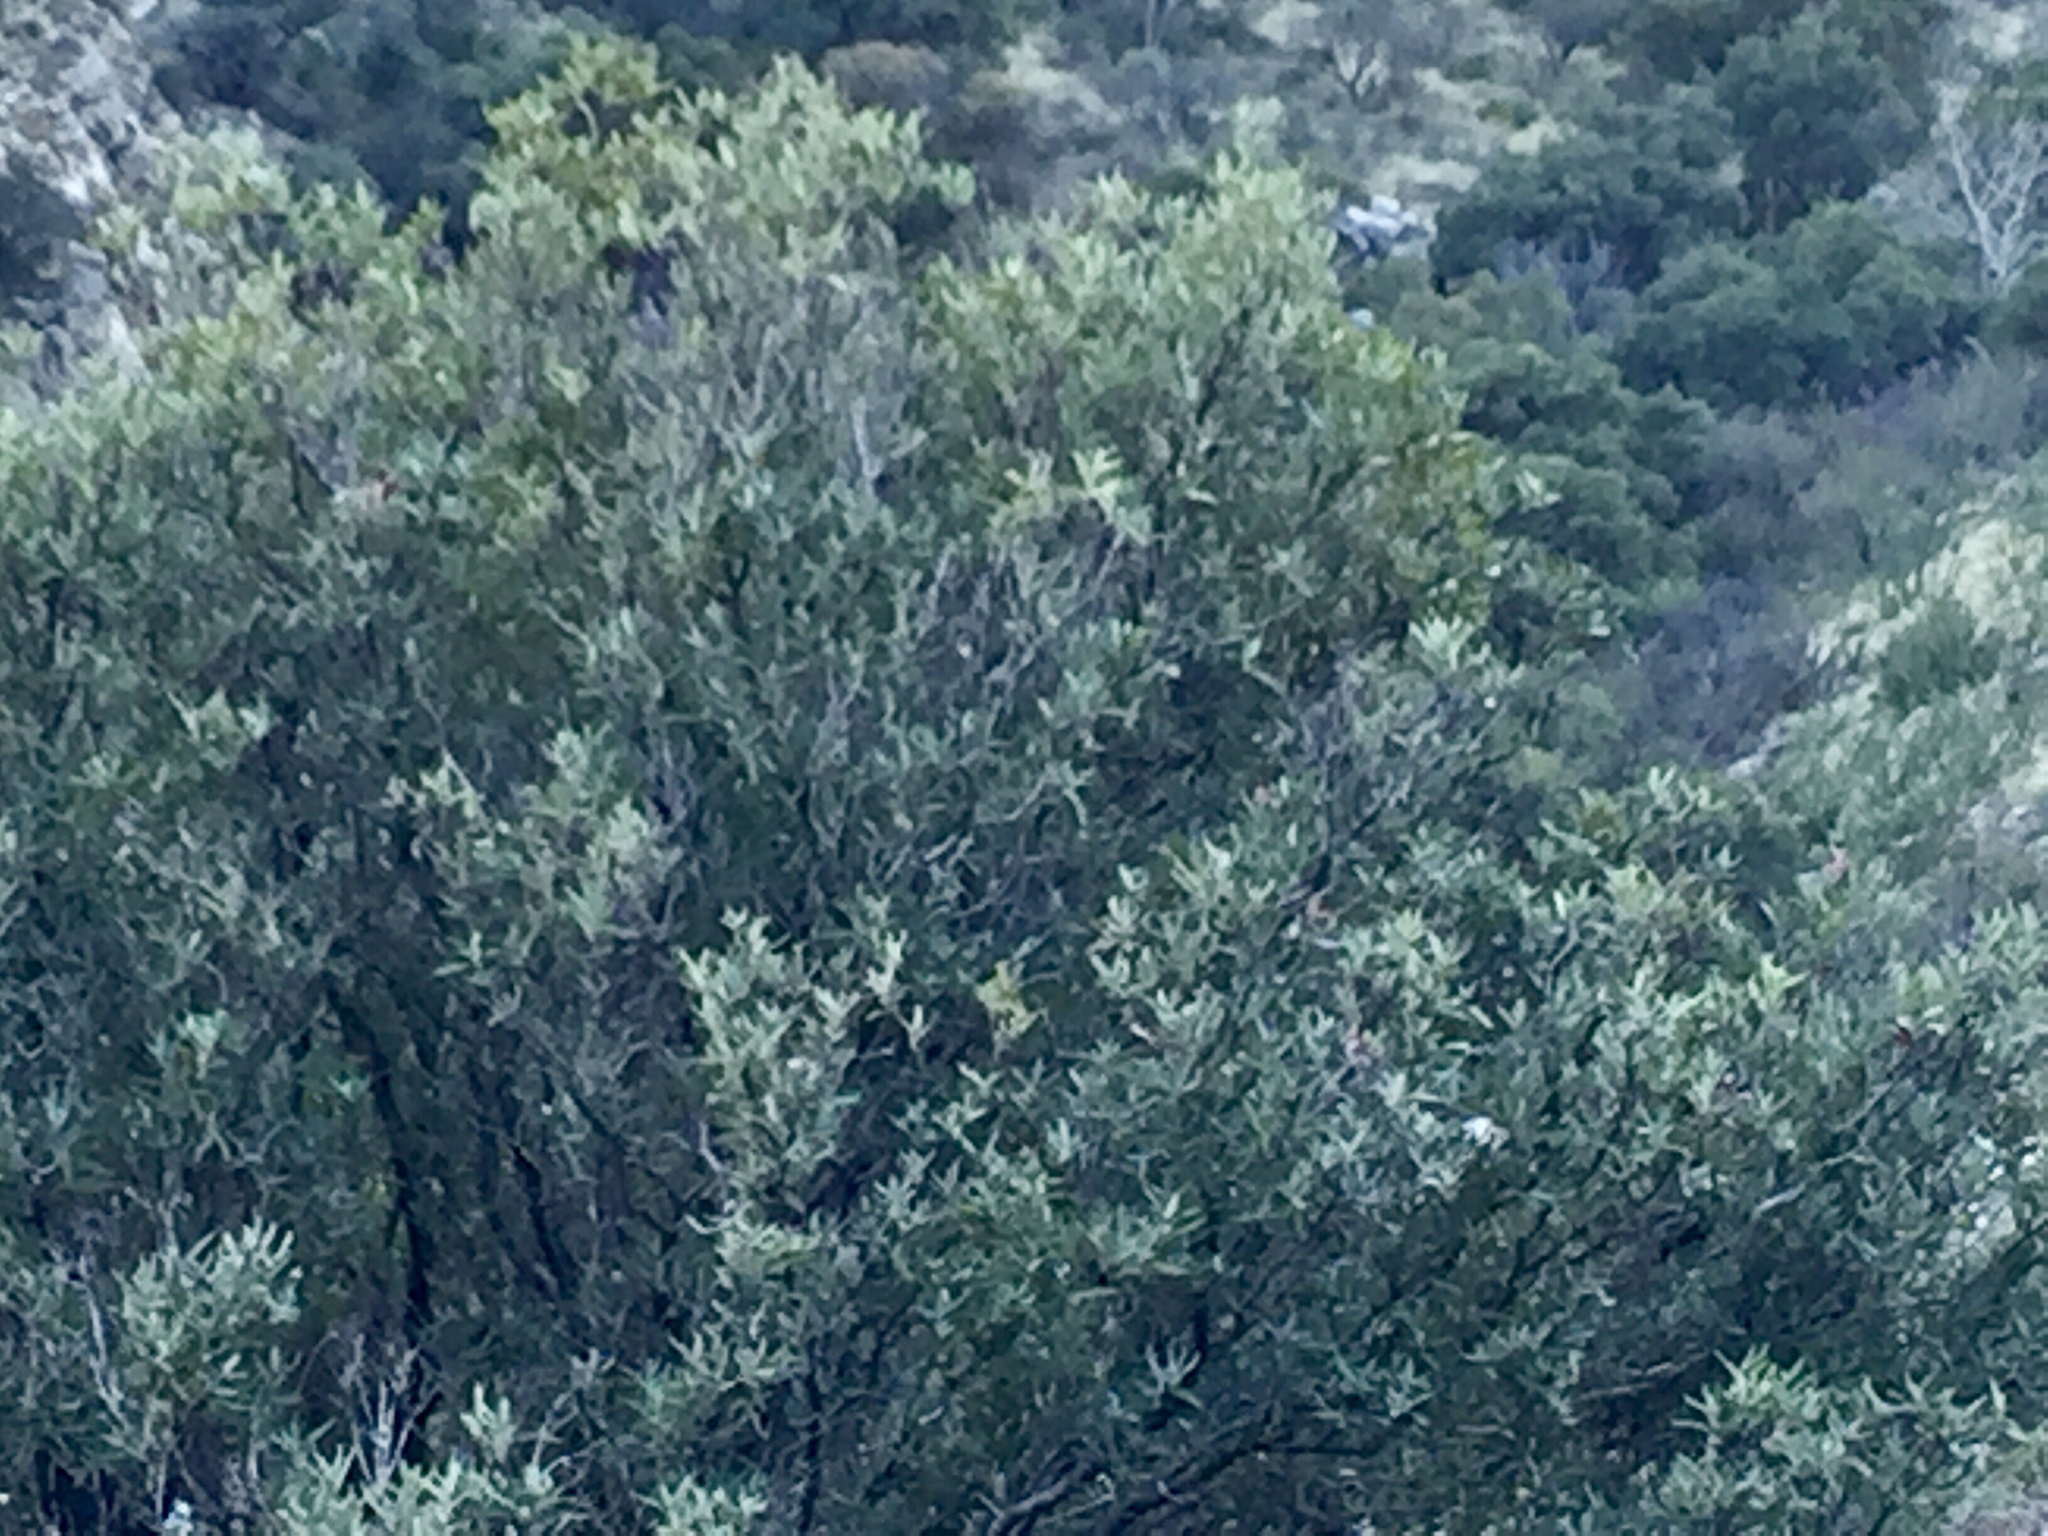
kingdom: Plantae
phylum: Tracheophyta
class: Magnoliopsida
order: Rosales
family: Rosaceae
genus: Vauquelinia
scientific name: Vauquelinia californica
